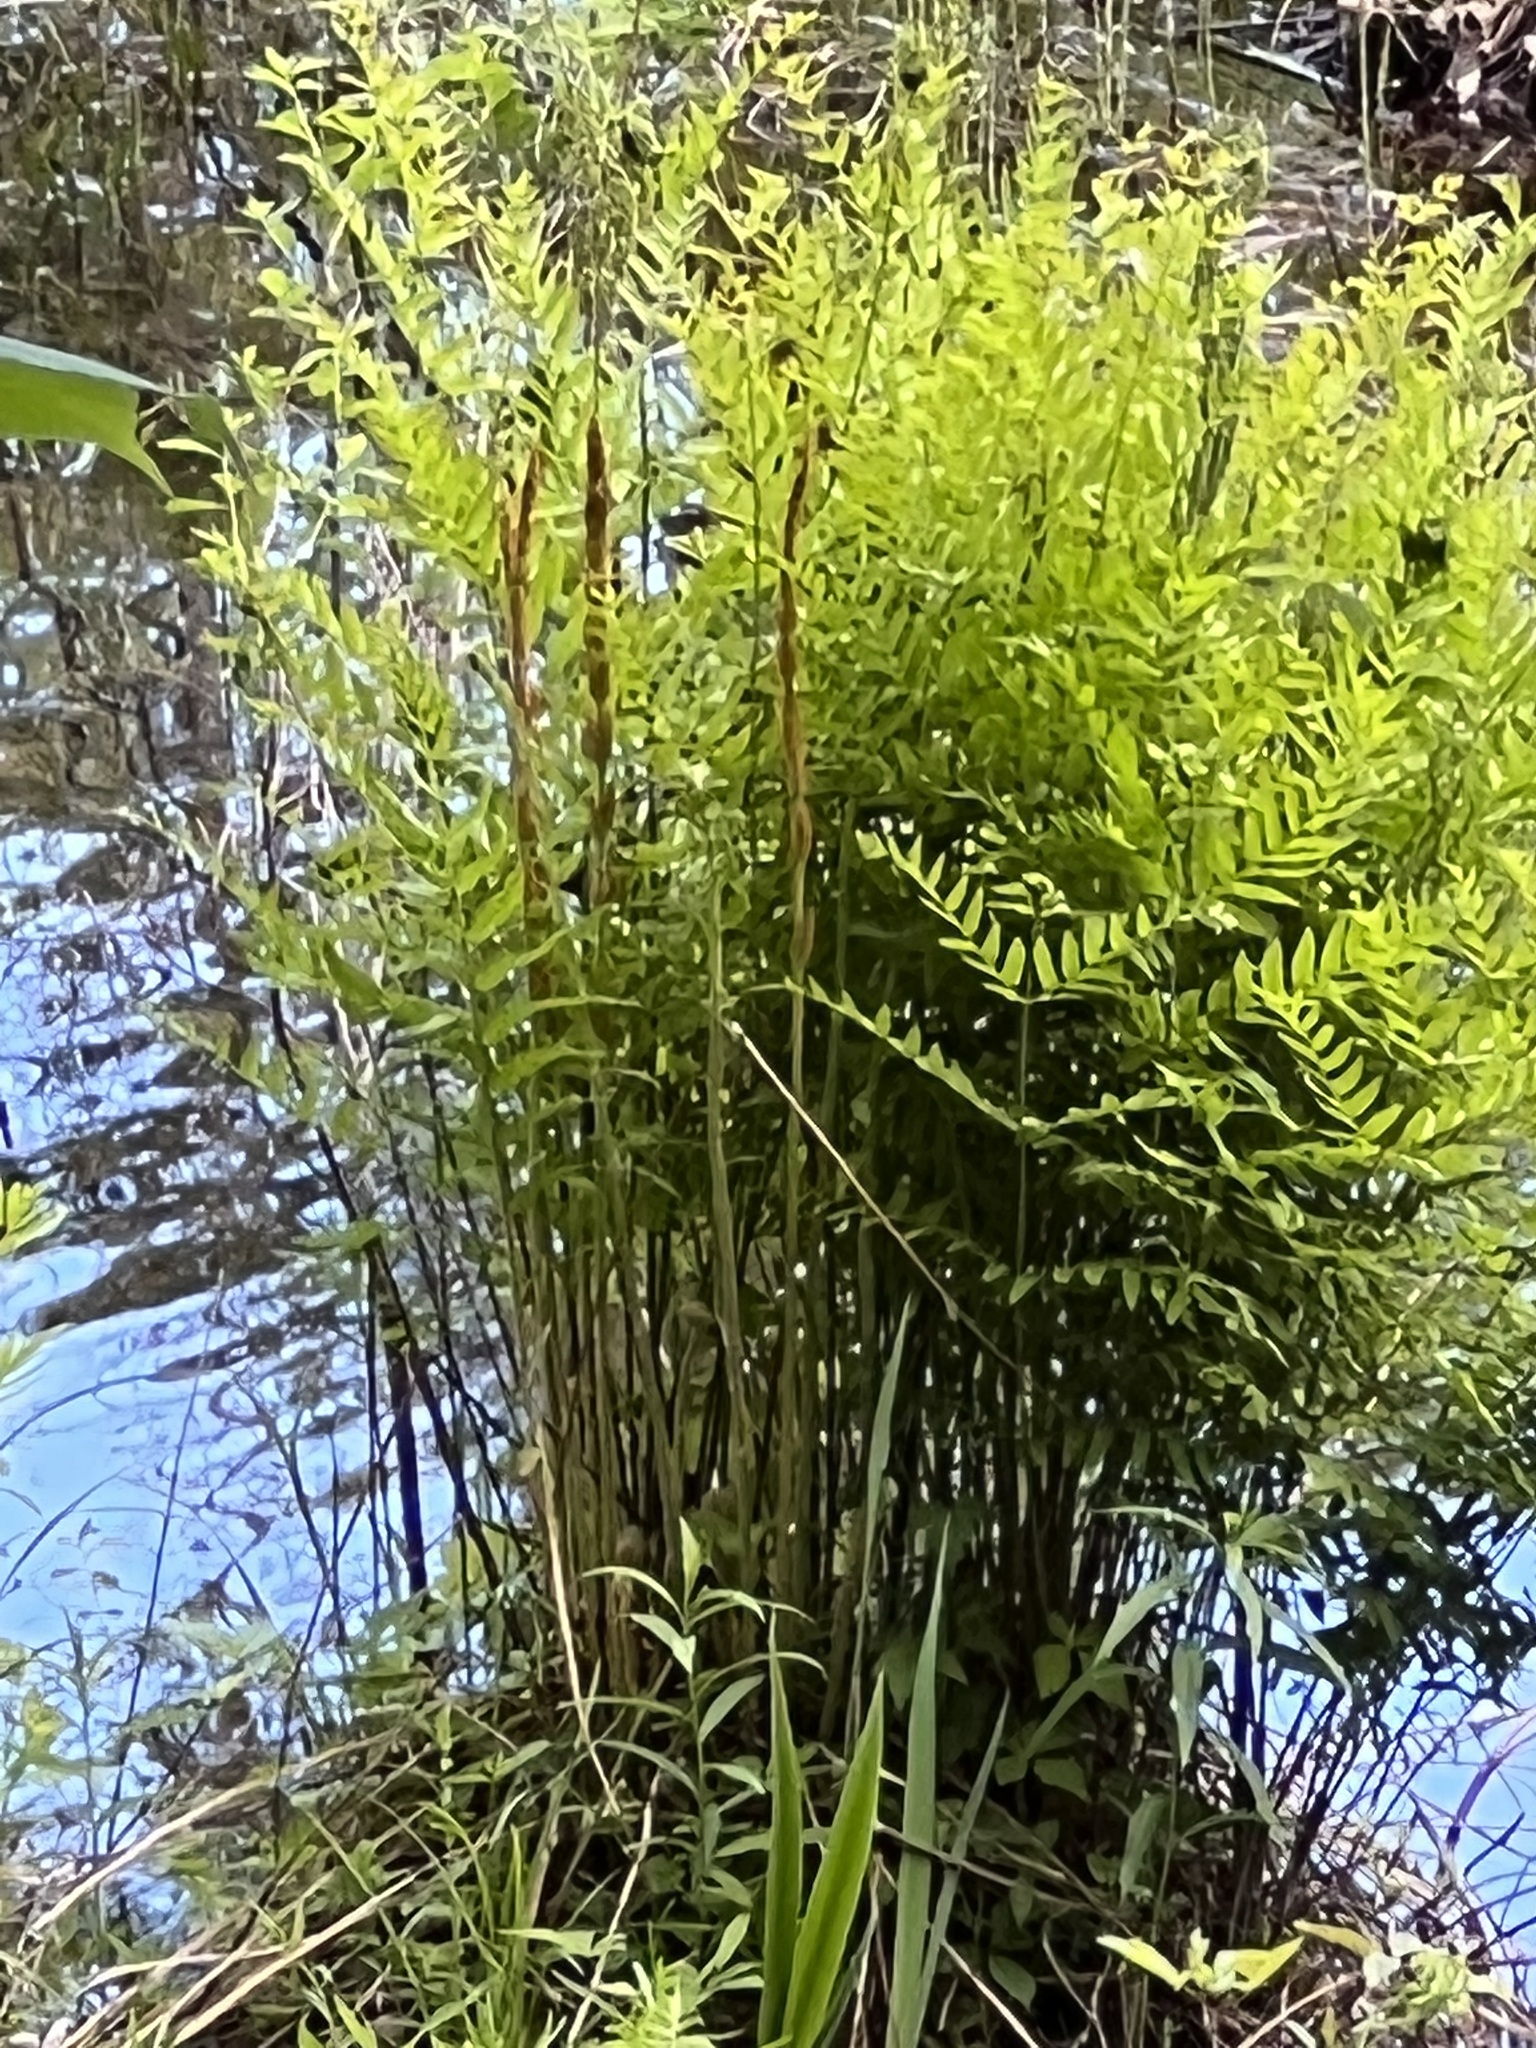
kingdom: Plantae
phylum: Tracheophyta
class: Polypodiopsida
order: Osmundales
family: Osmundaceae
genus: Osmunda
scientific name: Osmunda spectabilis
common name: American royal fern
